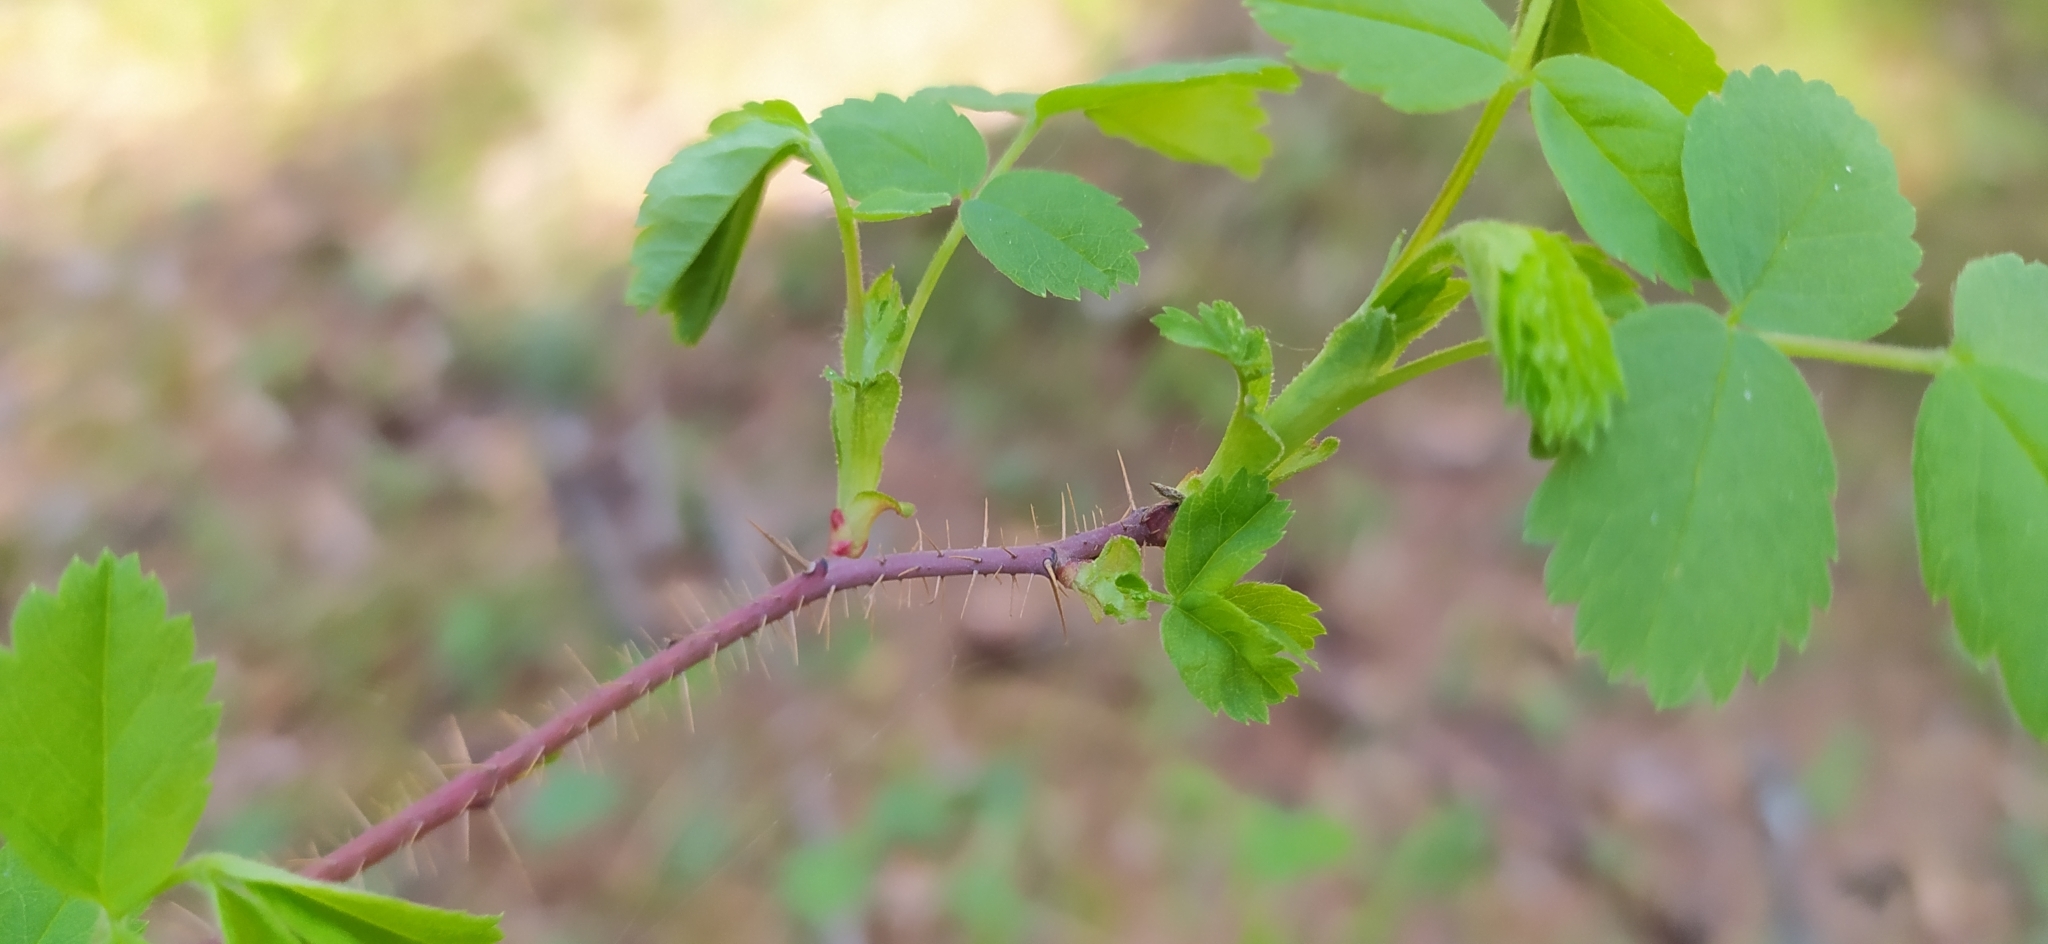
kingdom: Plantae
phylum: Tracheophyta
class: Magnoliopsida
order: Rosales
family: Rosaceae
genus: Rosa
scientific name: Rosa acicularis
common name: Prickly rose
